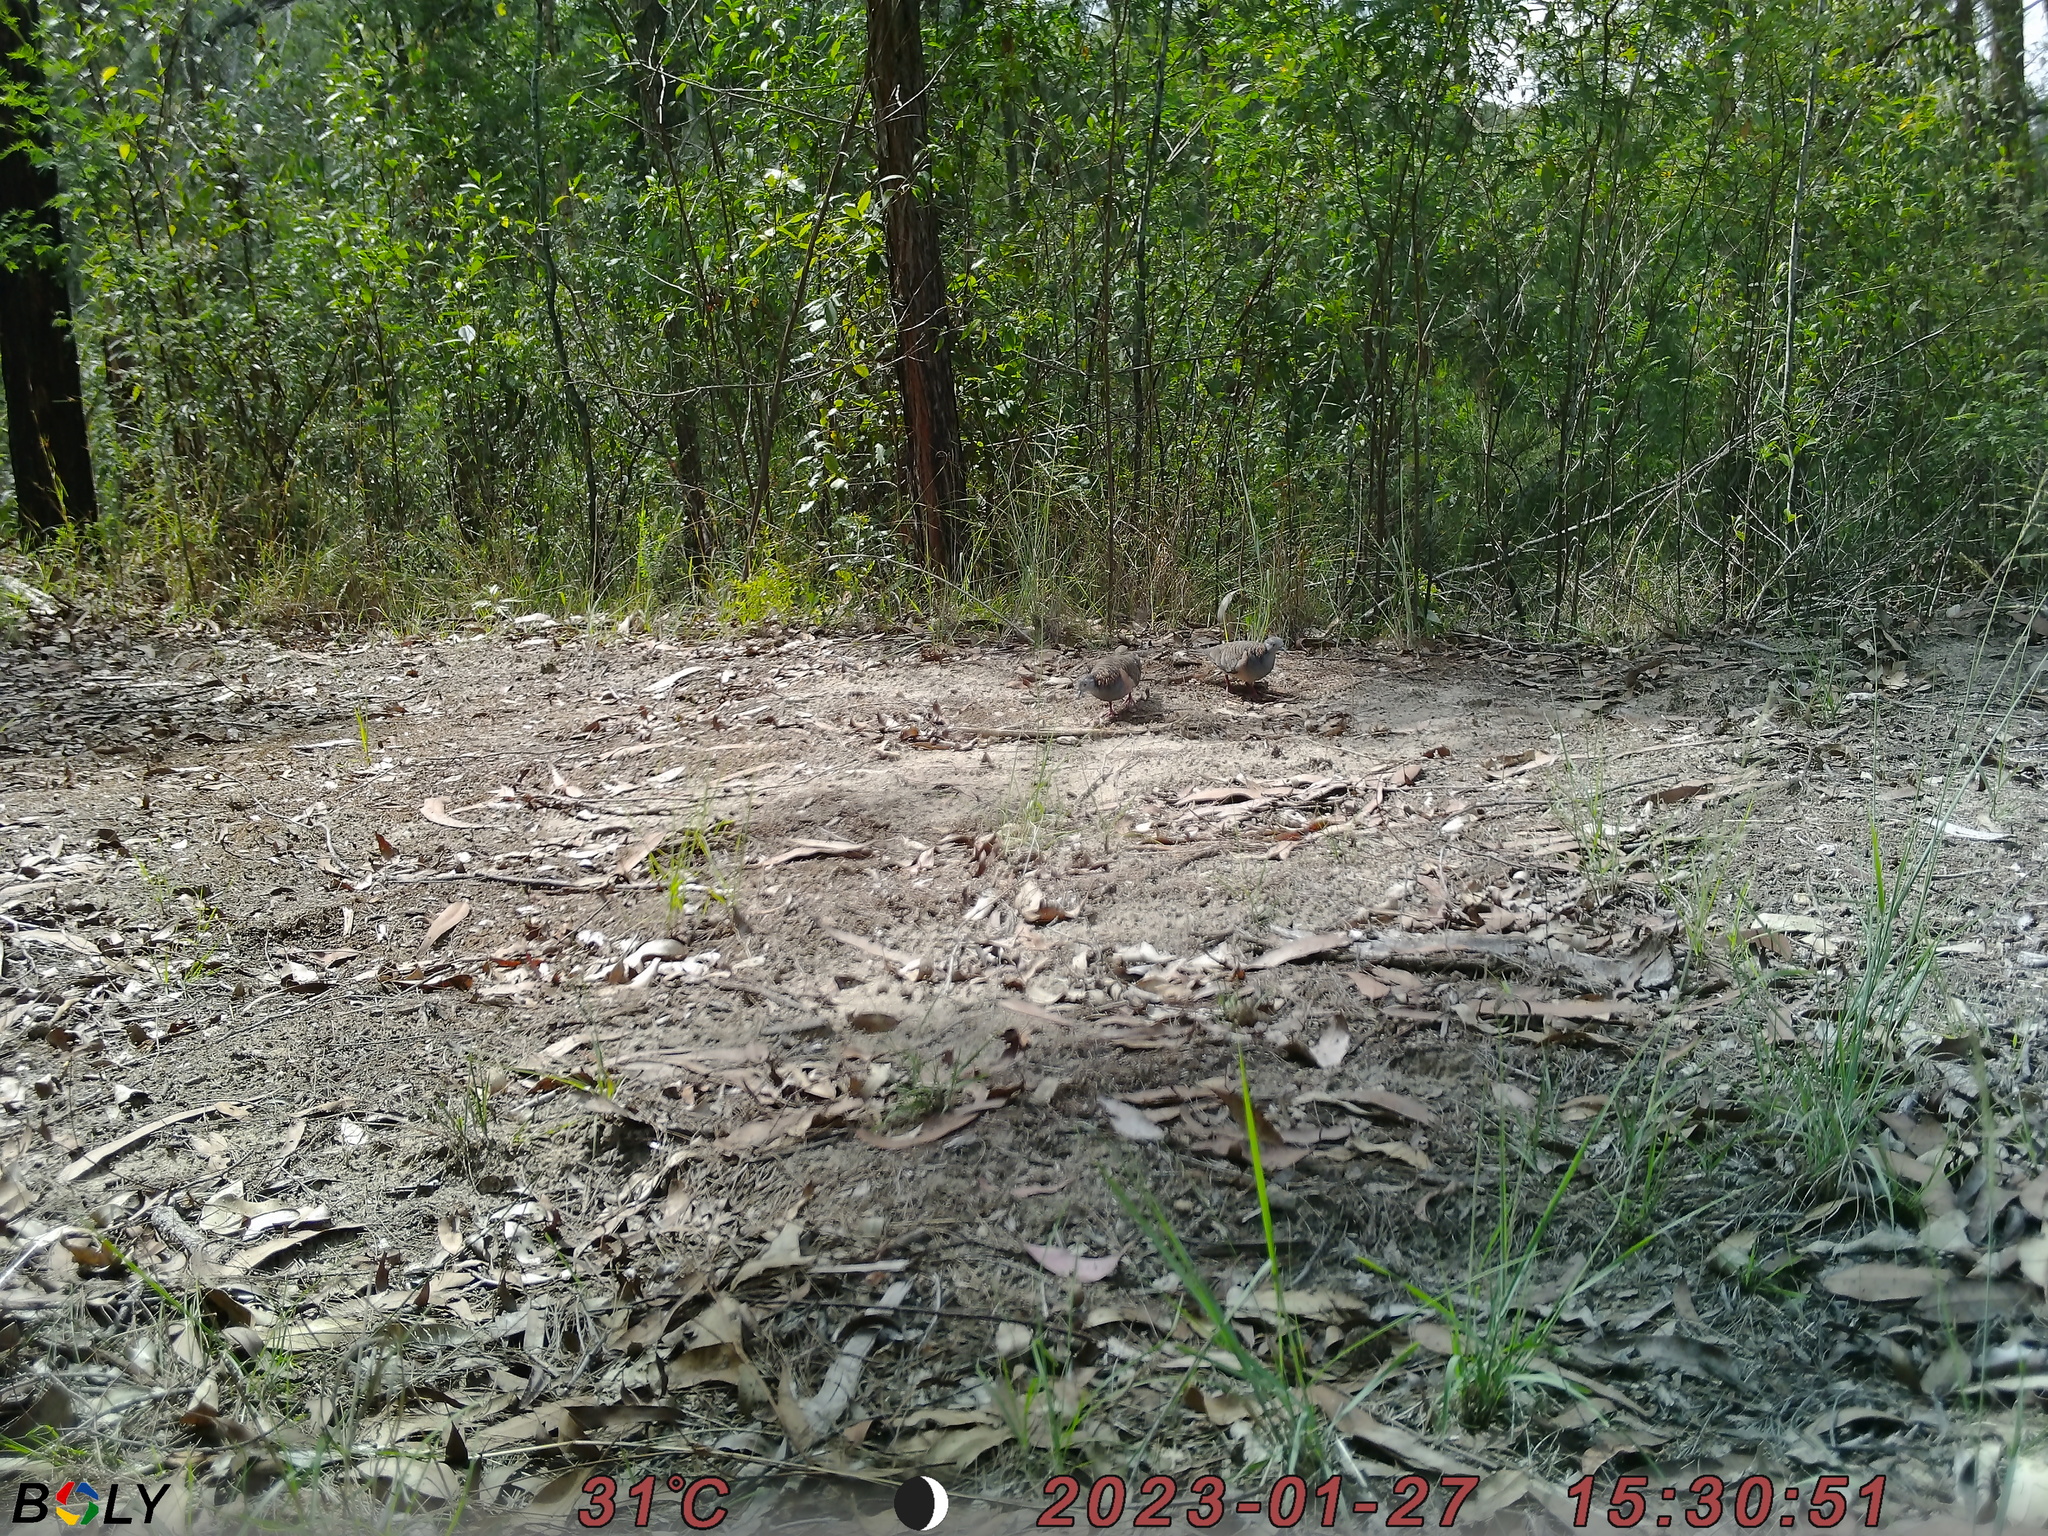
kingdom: Animalia
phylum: Chordata
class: Aves
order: Columbiformes
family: Columbidae
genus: Geopelia
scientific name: Geopelia humeralis
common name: Bar-shouldered dove
